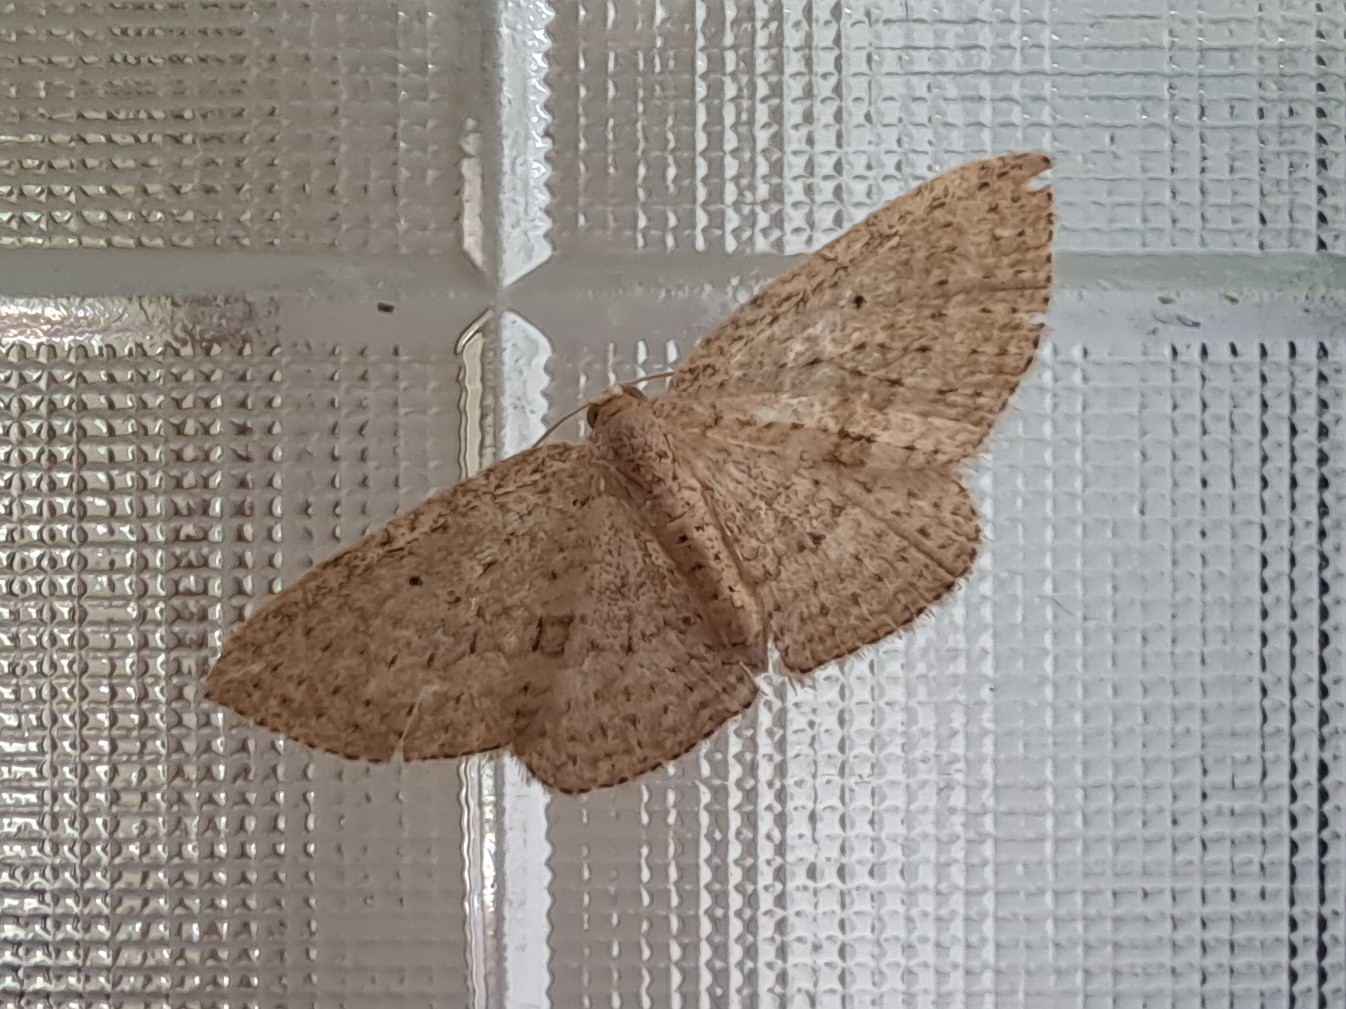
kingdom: Animalia
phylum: Arthropoda
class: Insecta
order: Lepidoptera
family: Geometridae
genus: Poecilasthena
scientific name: Poecilasthena schistaria
